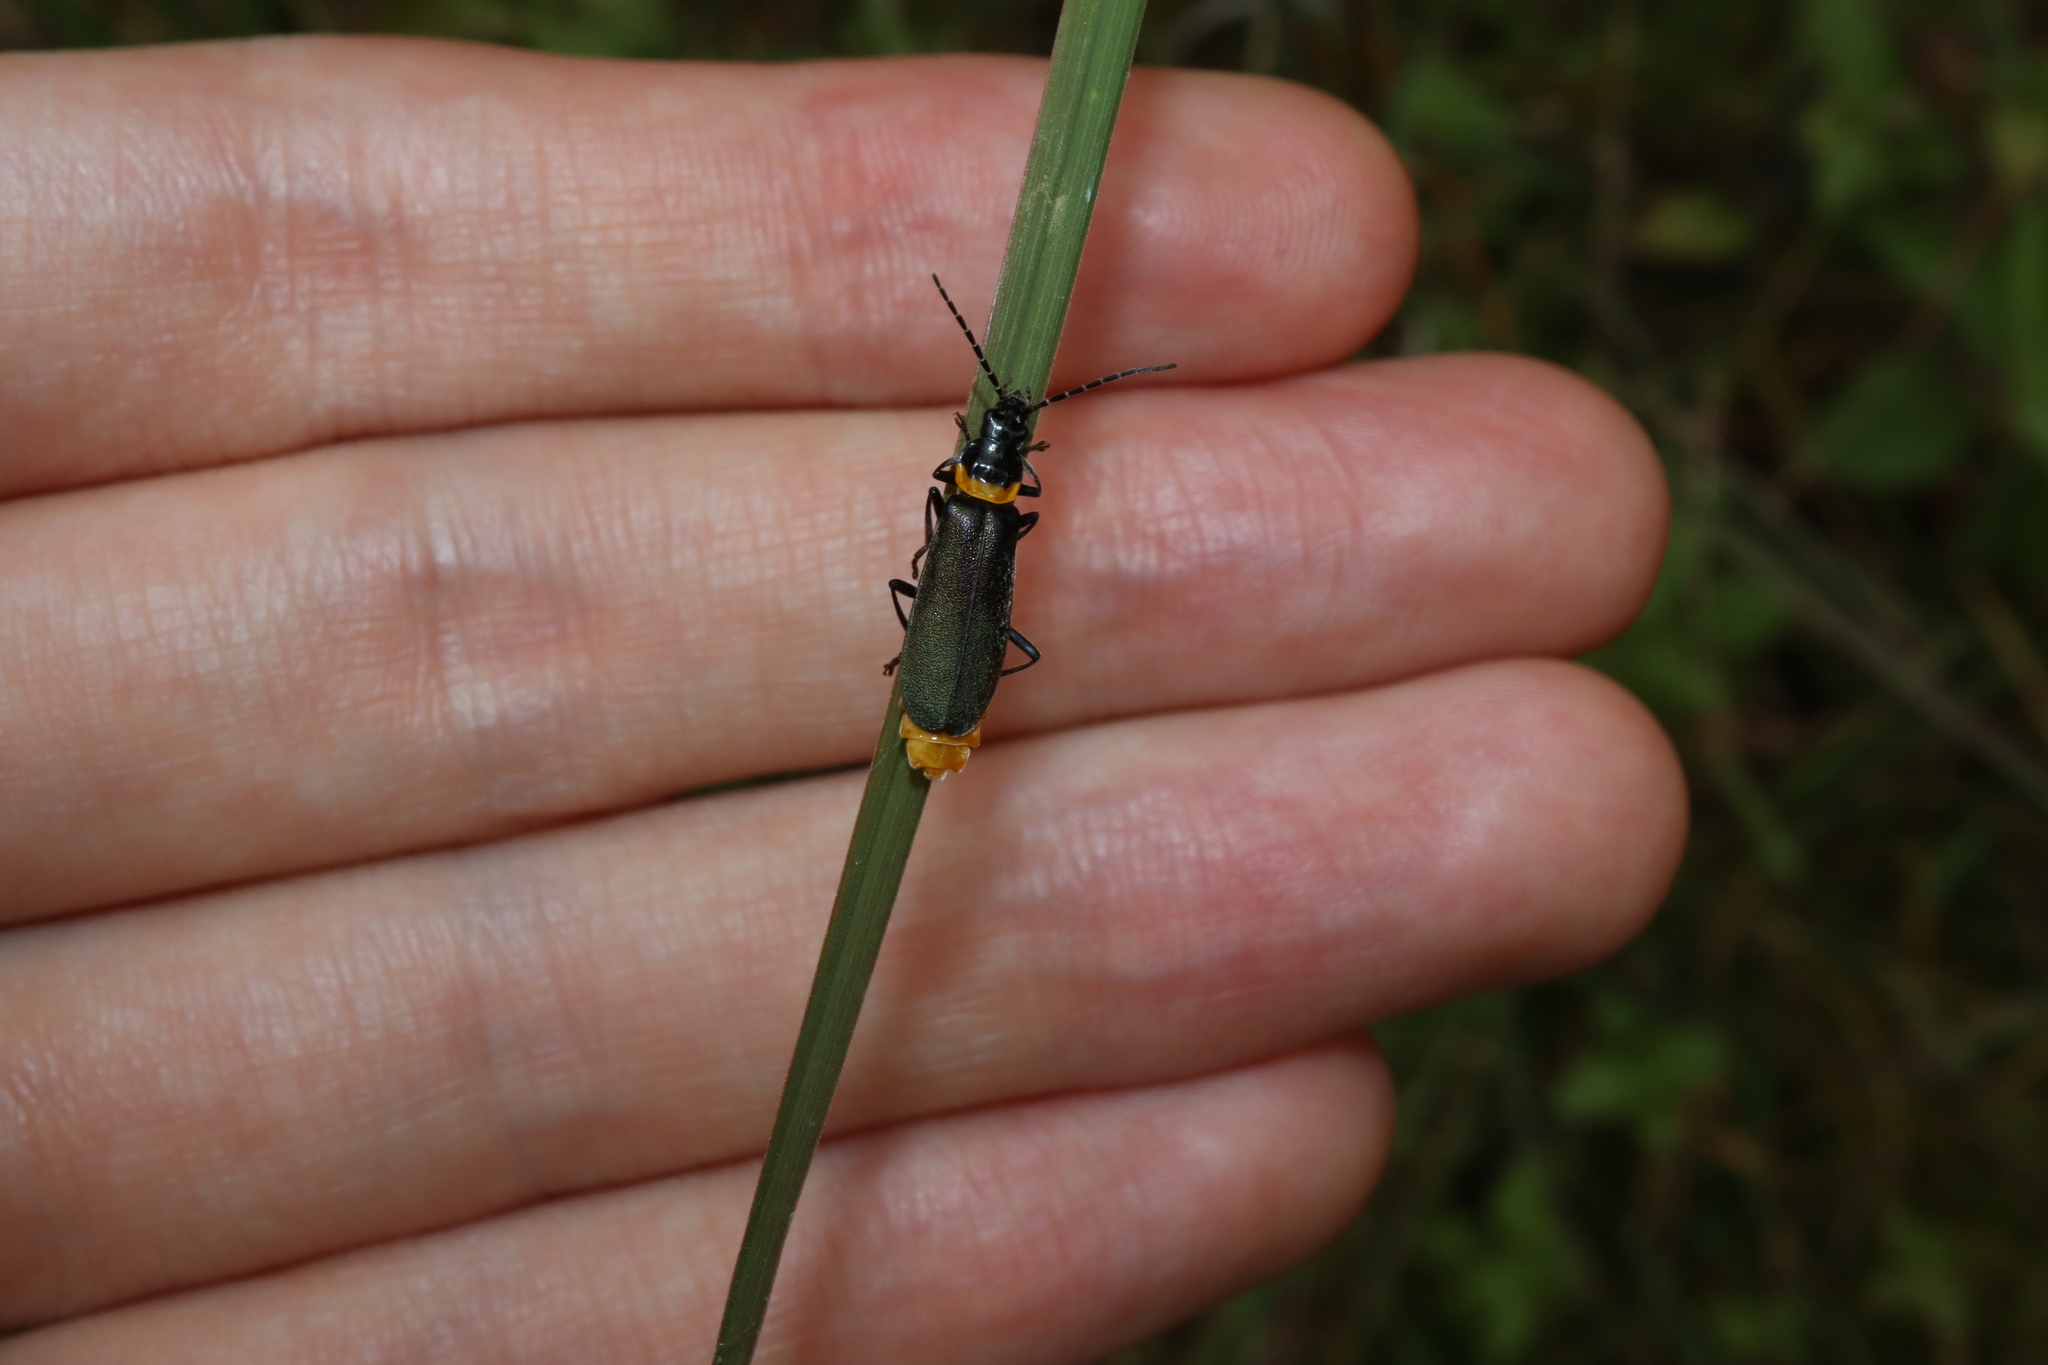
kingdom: Animalia
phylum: Arthropoda
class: Insecta
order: Coleoptera
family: Cantharidae
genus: Chauliognathus
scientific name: Chauliognathus
